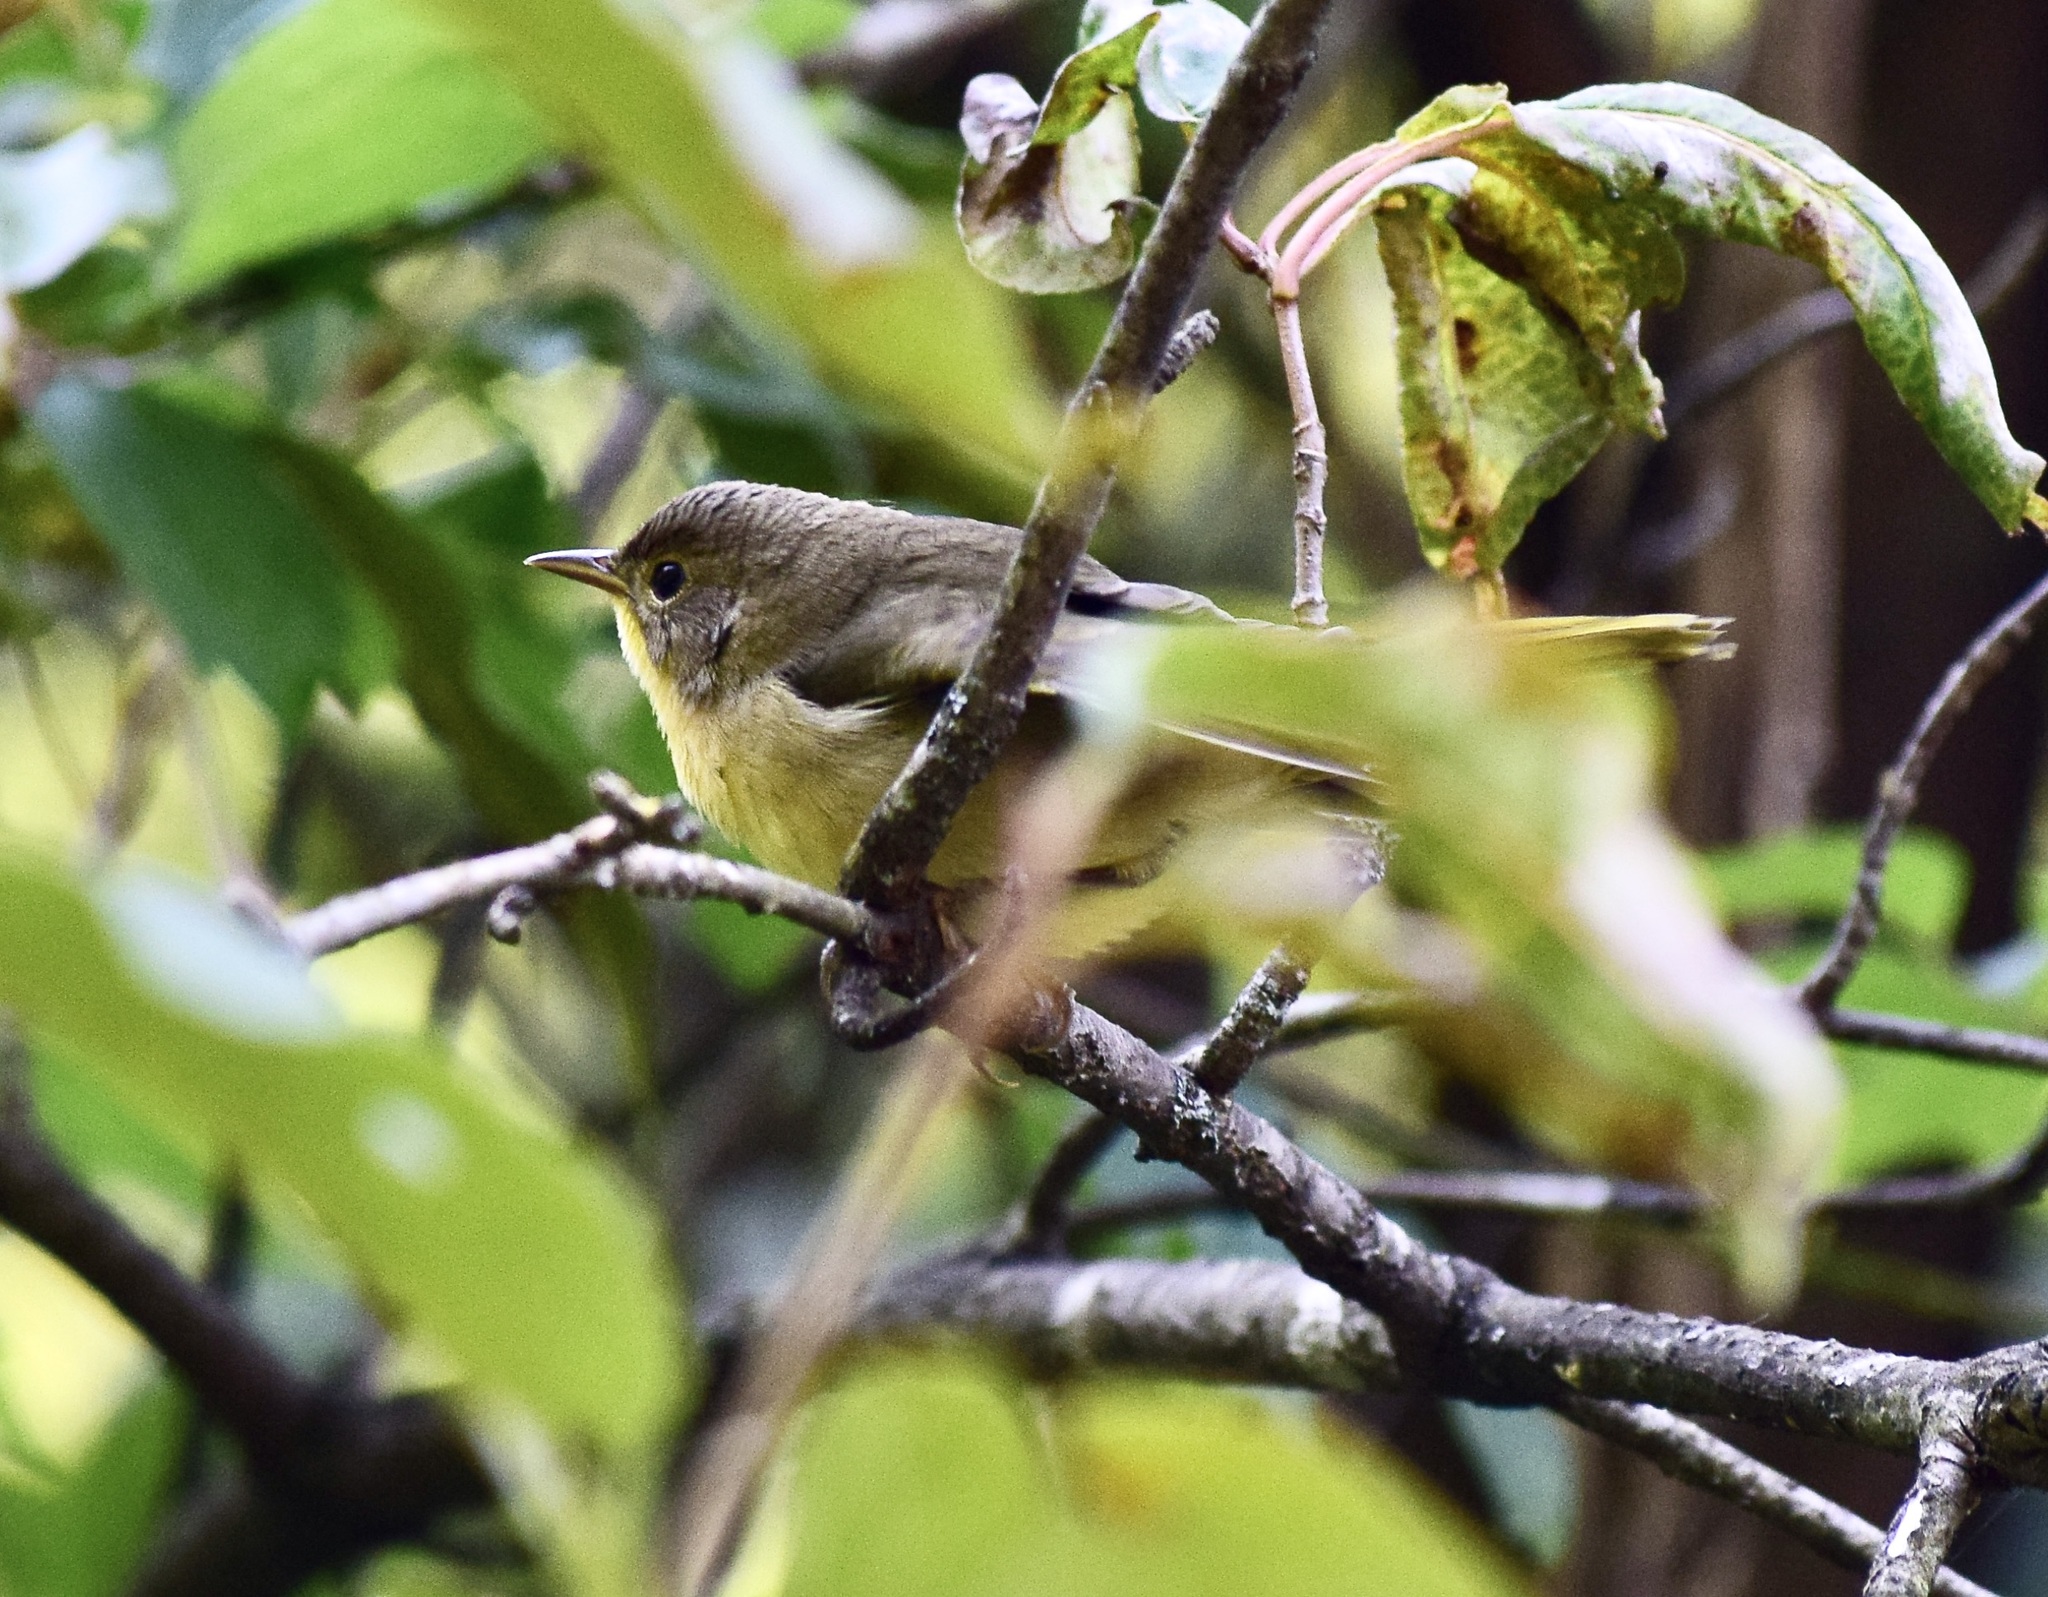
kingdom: Animalia
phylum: Chordata
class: Aves
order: Passeriformes
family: Parulidae
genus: Geothlypis
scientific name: Geothlypis trichas
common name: Common yellowthroat
